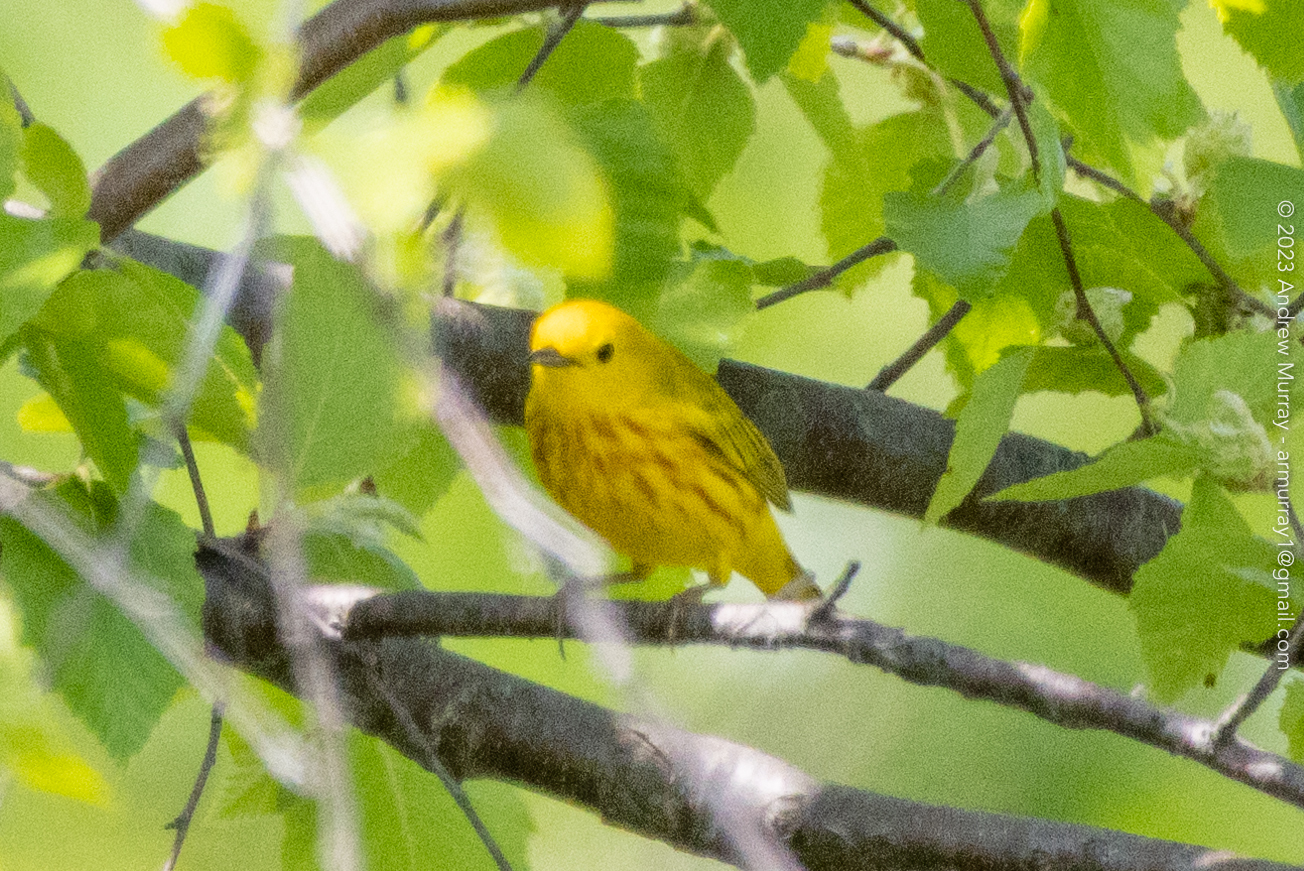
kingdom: Animalia
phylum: Chordata
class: Aves
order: Passeriformes
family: Parulidae
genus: Setophaga
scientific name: Setophaga petechia
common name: Yellow warbler
